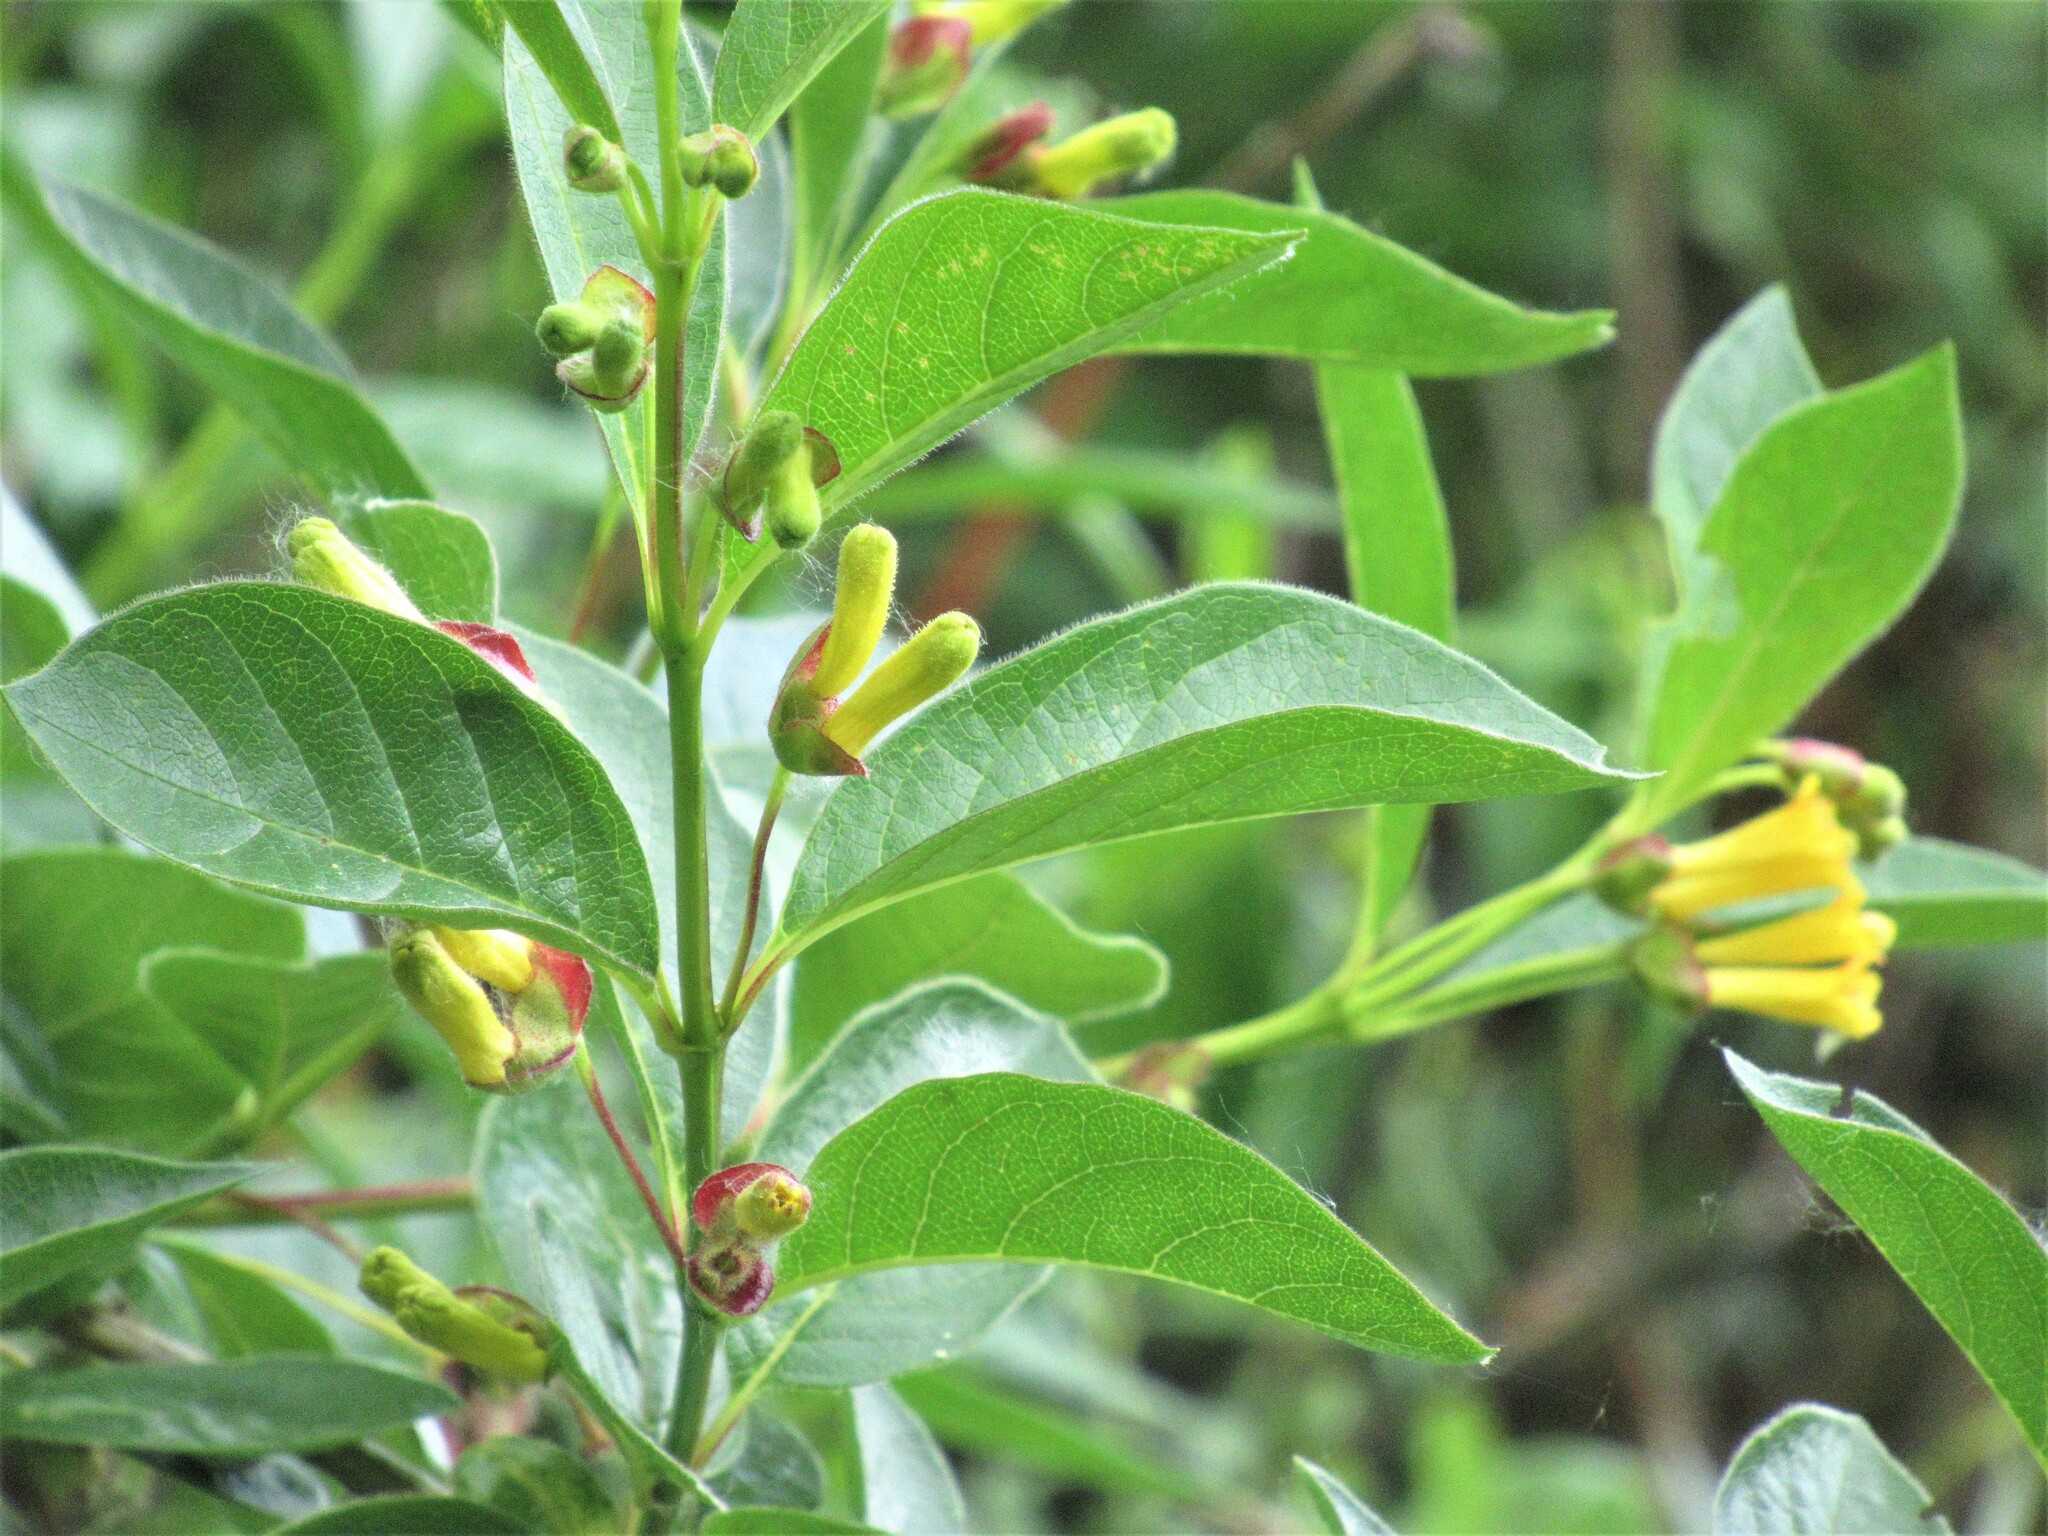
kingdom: Plantae
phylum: Tracheophyta
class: Magnoliopsida
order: Dipsacales
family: Caprifoliaceae
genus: Lonicera
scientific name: Lonicera involucrata
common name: Californian honeysuckle
